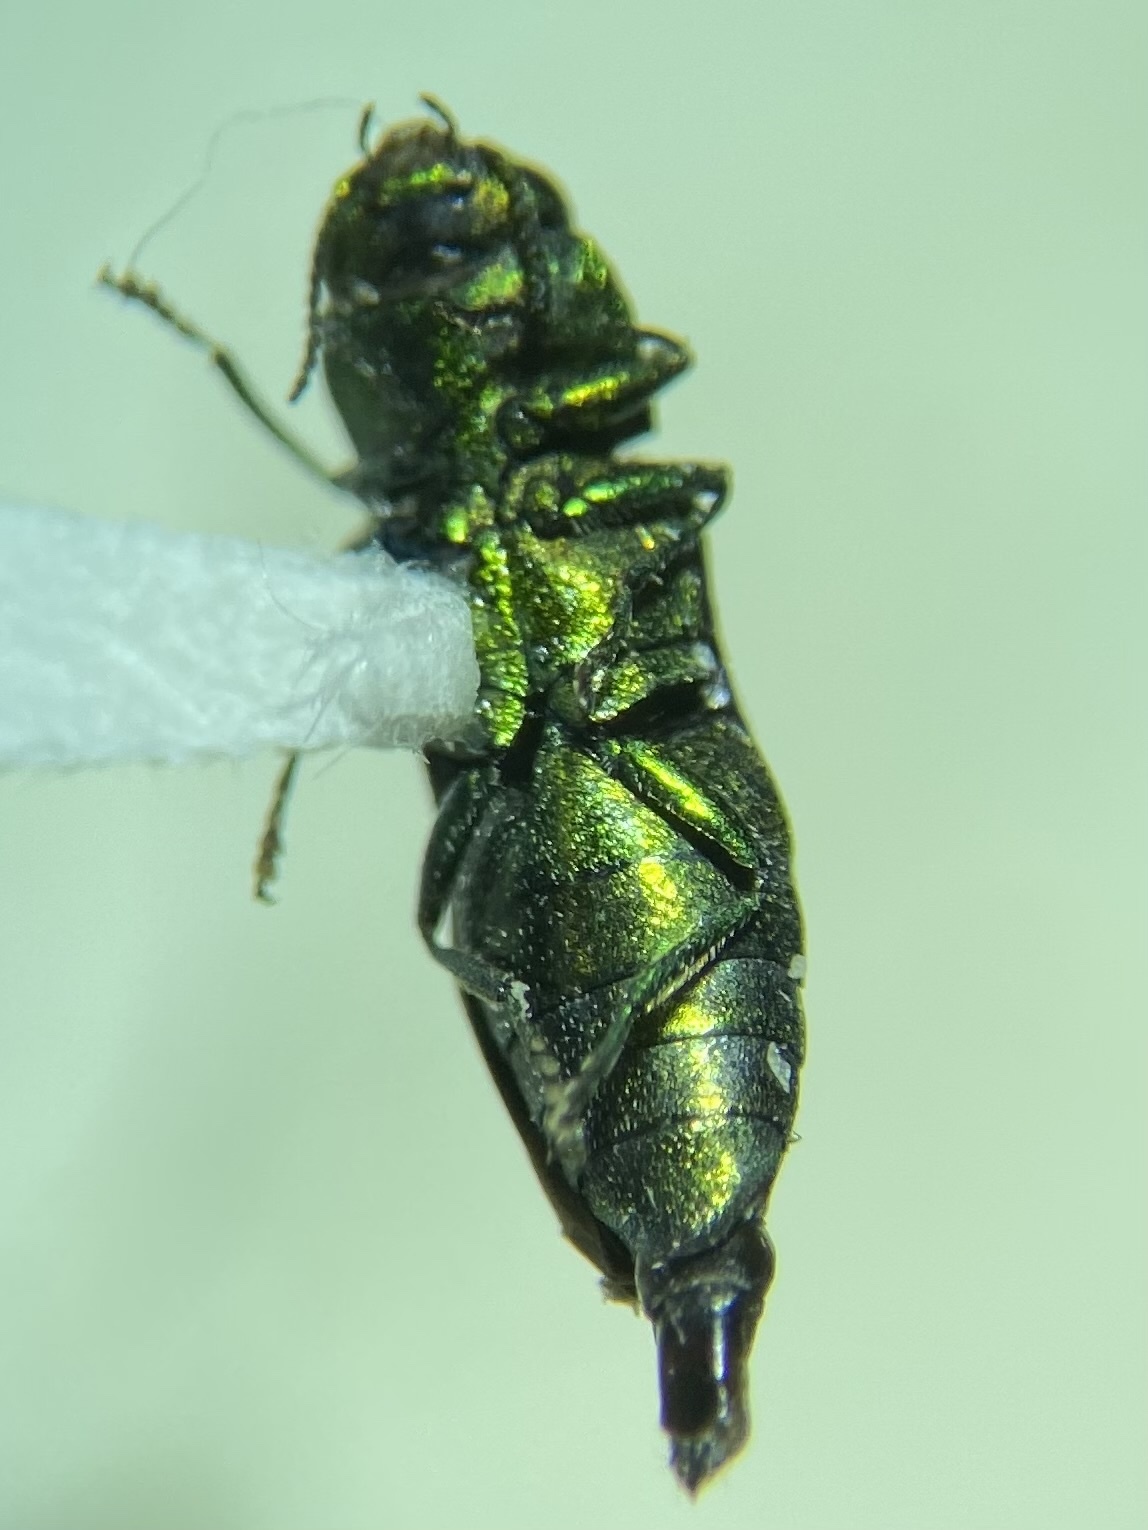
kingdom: Animalia
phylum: Arthropoda
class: Insecta
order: Coleoptera
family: Buprestidae
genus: Anthaxia
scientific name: Anthaxia dichroa
